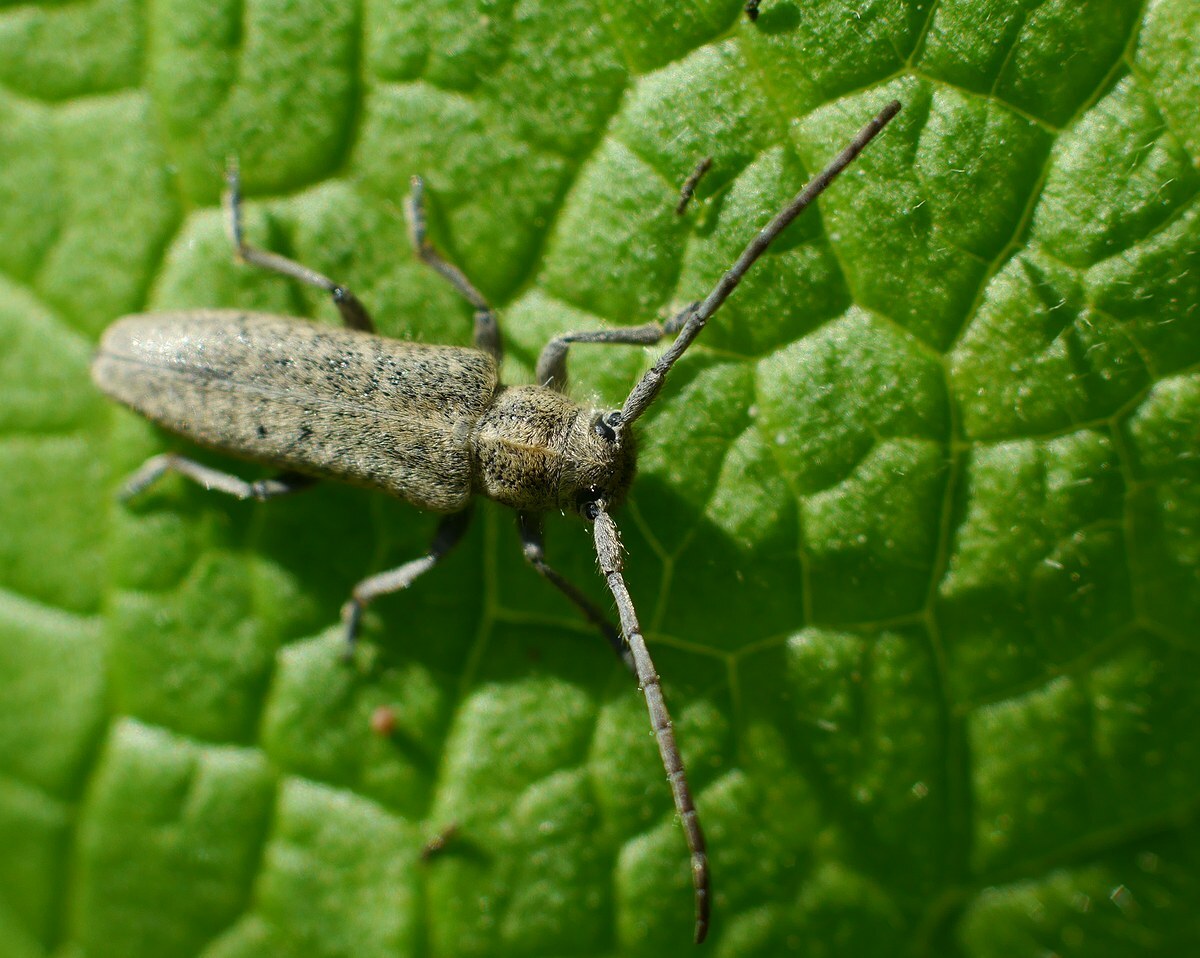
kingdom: Animalia
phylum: Arthropoda
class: Insecta
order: Coleoptera
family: Cerambycidae
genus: Phytoecia
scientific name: Phytoecia hirsutula
